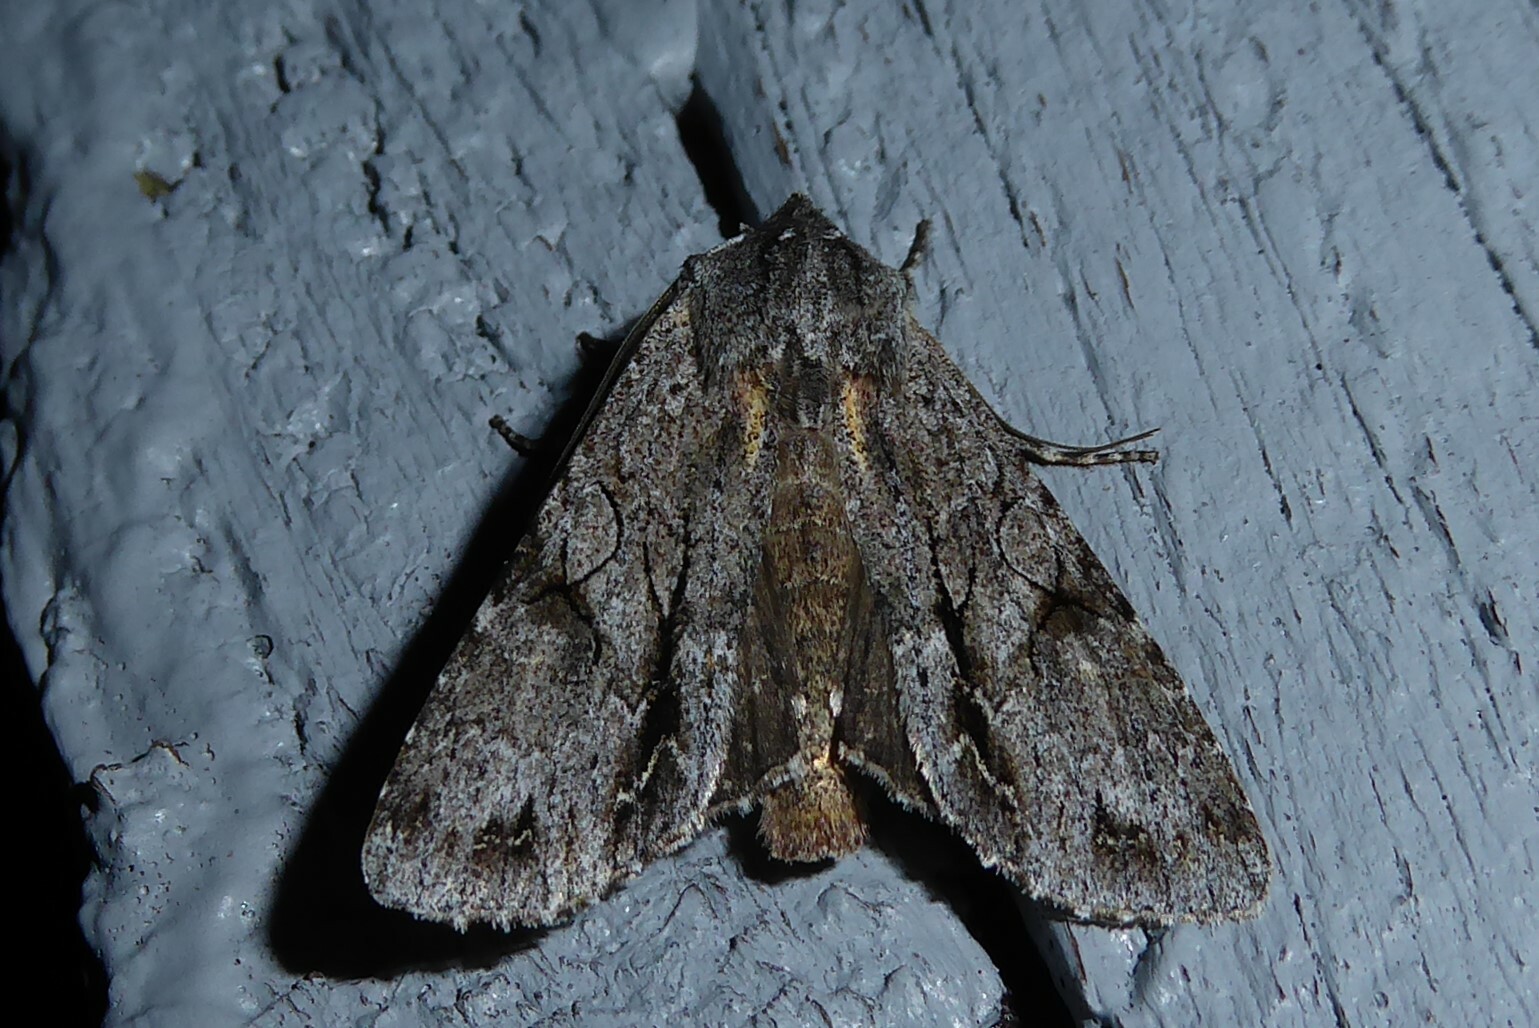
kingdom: Animalia
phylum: Arthropoda
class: Insecta
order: Lepidoptera
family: Noctuidae
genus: Ichneutica
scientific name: Ichneutica
